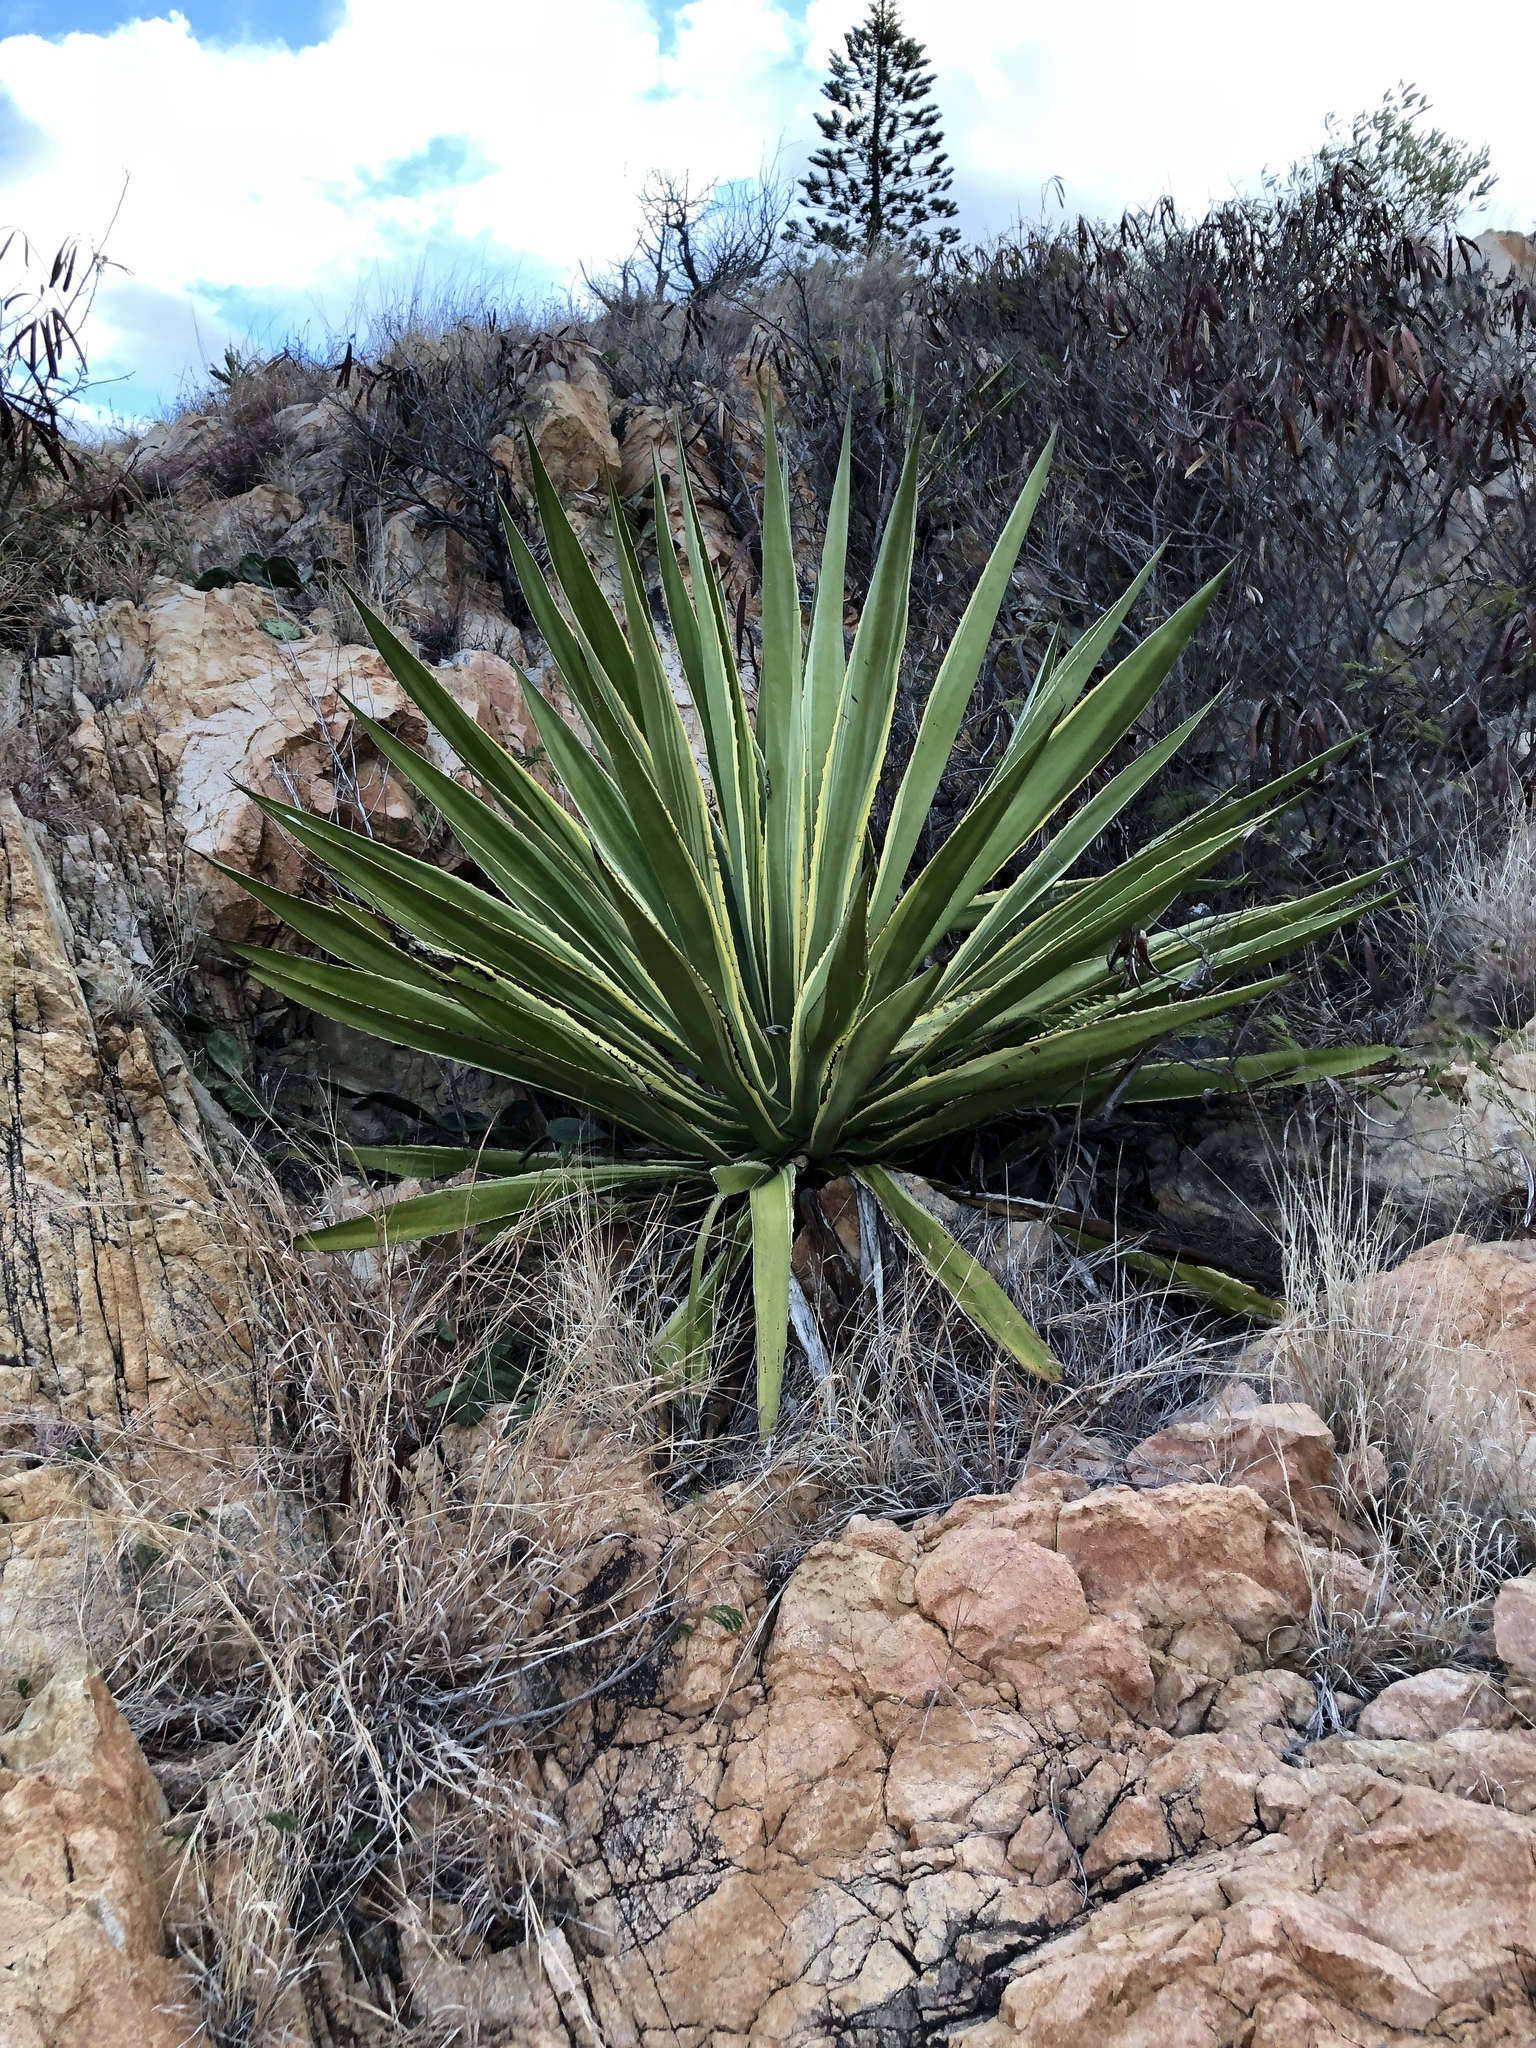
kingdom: Plantae
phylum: Tracheophyta
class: Liliopsida
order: Asparagales
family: Asparagaceae
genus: Furcraea
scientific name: Furcraea selloana
